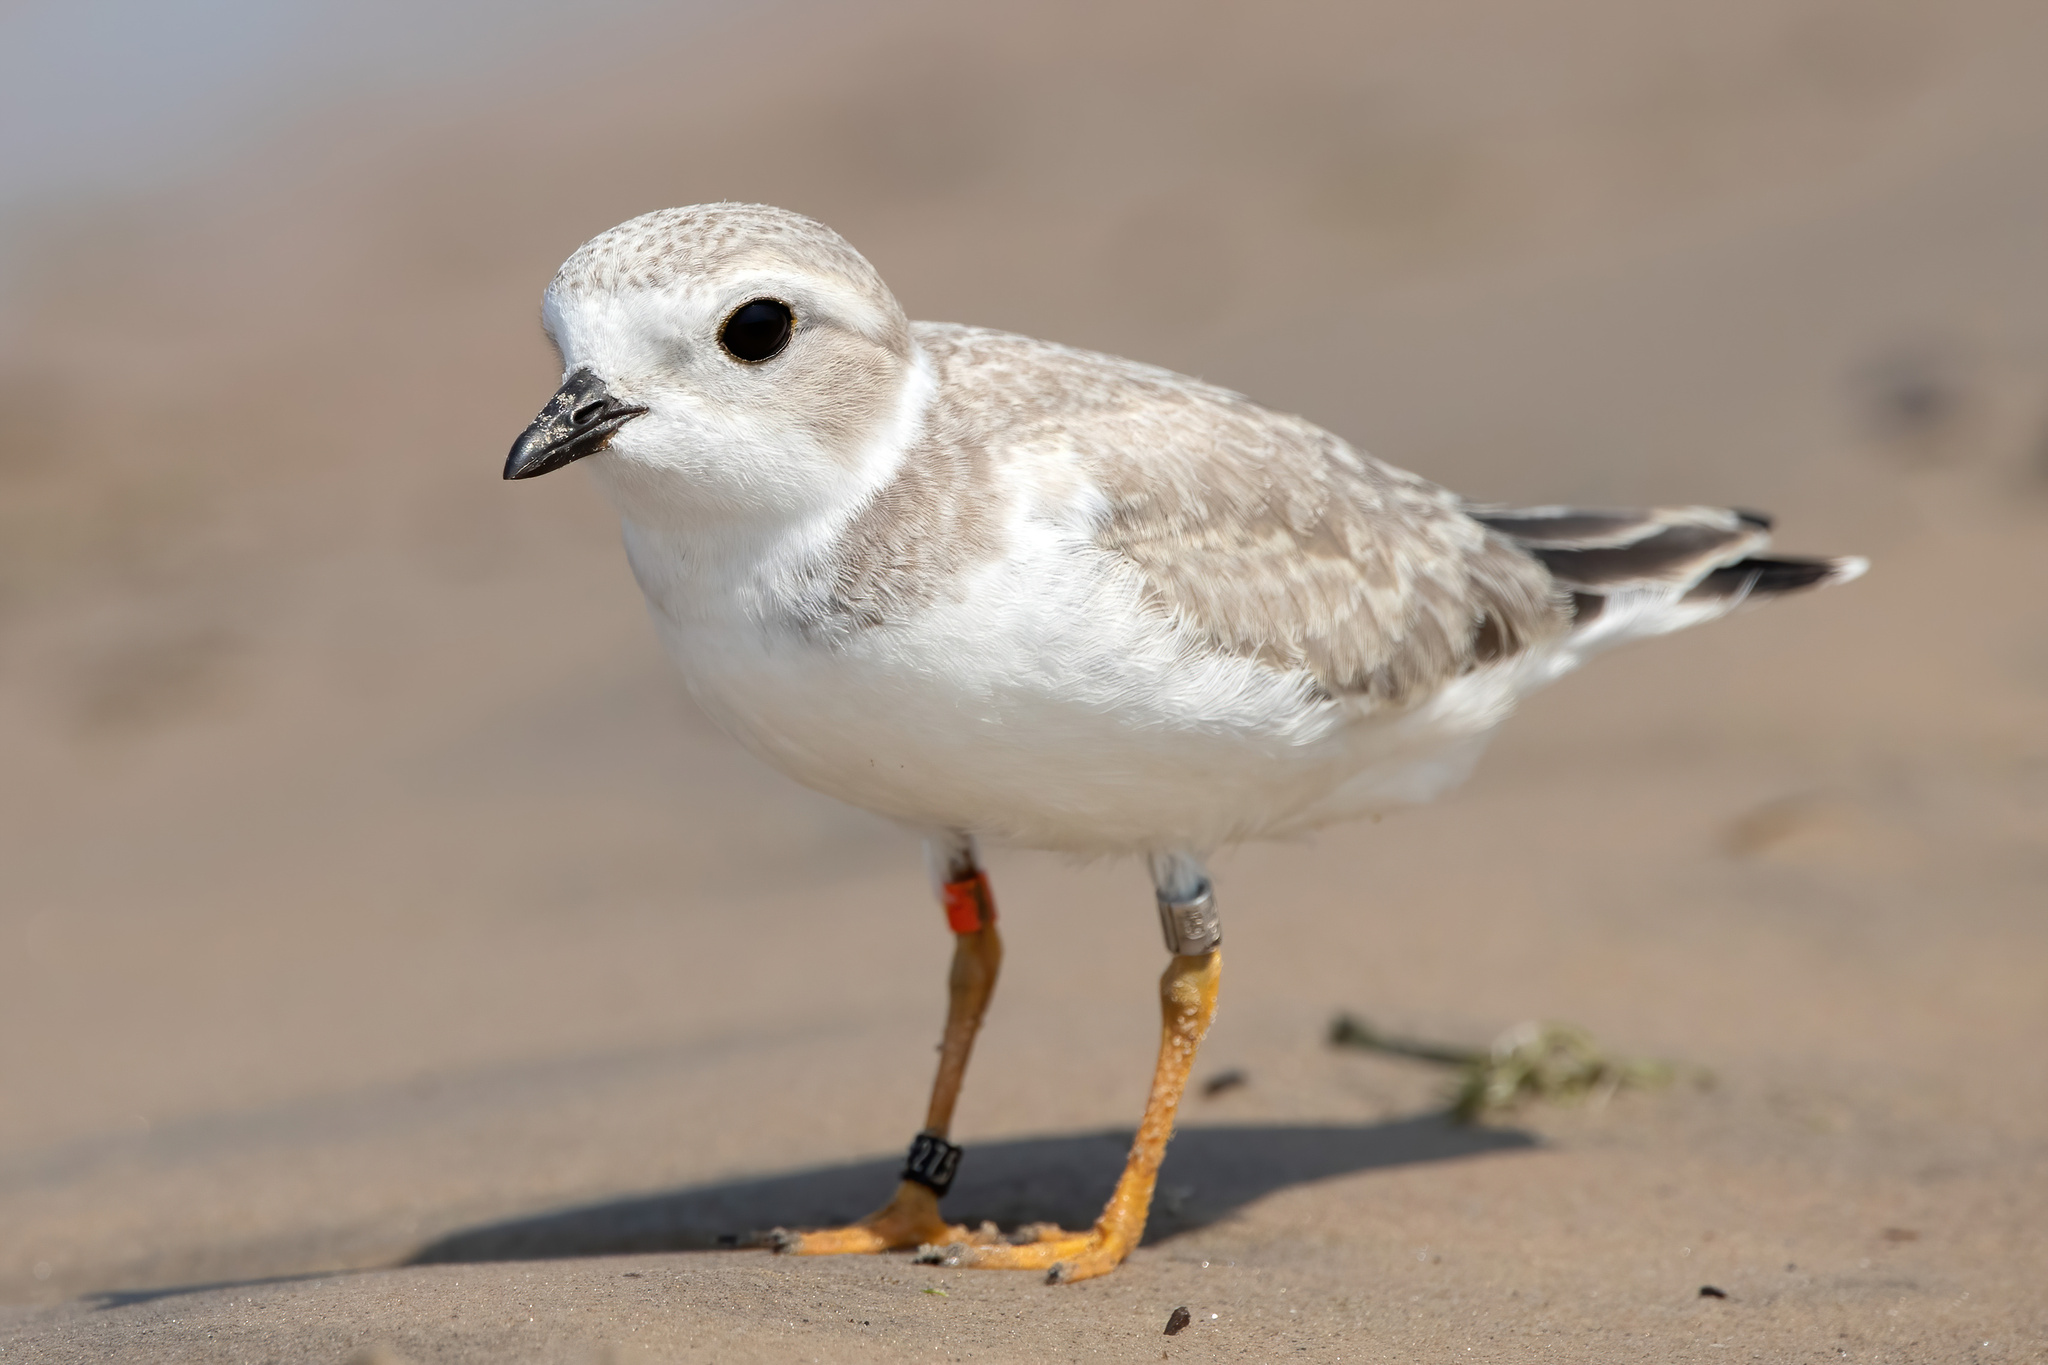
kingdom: Animalia
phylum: Chordata
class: Aves
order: Charadriiformes
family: Charadriidae
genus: Charadrius
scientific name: Charadrius melodus
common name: Piping plover
